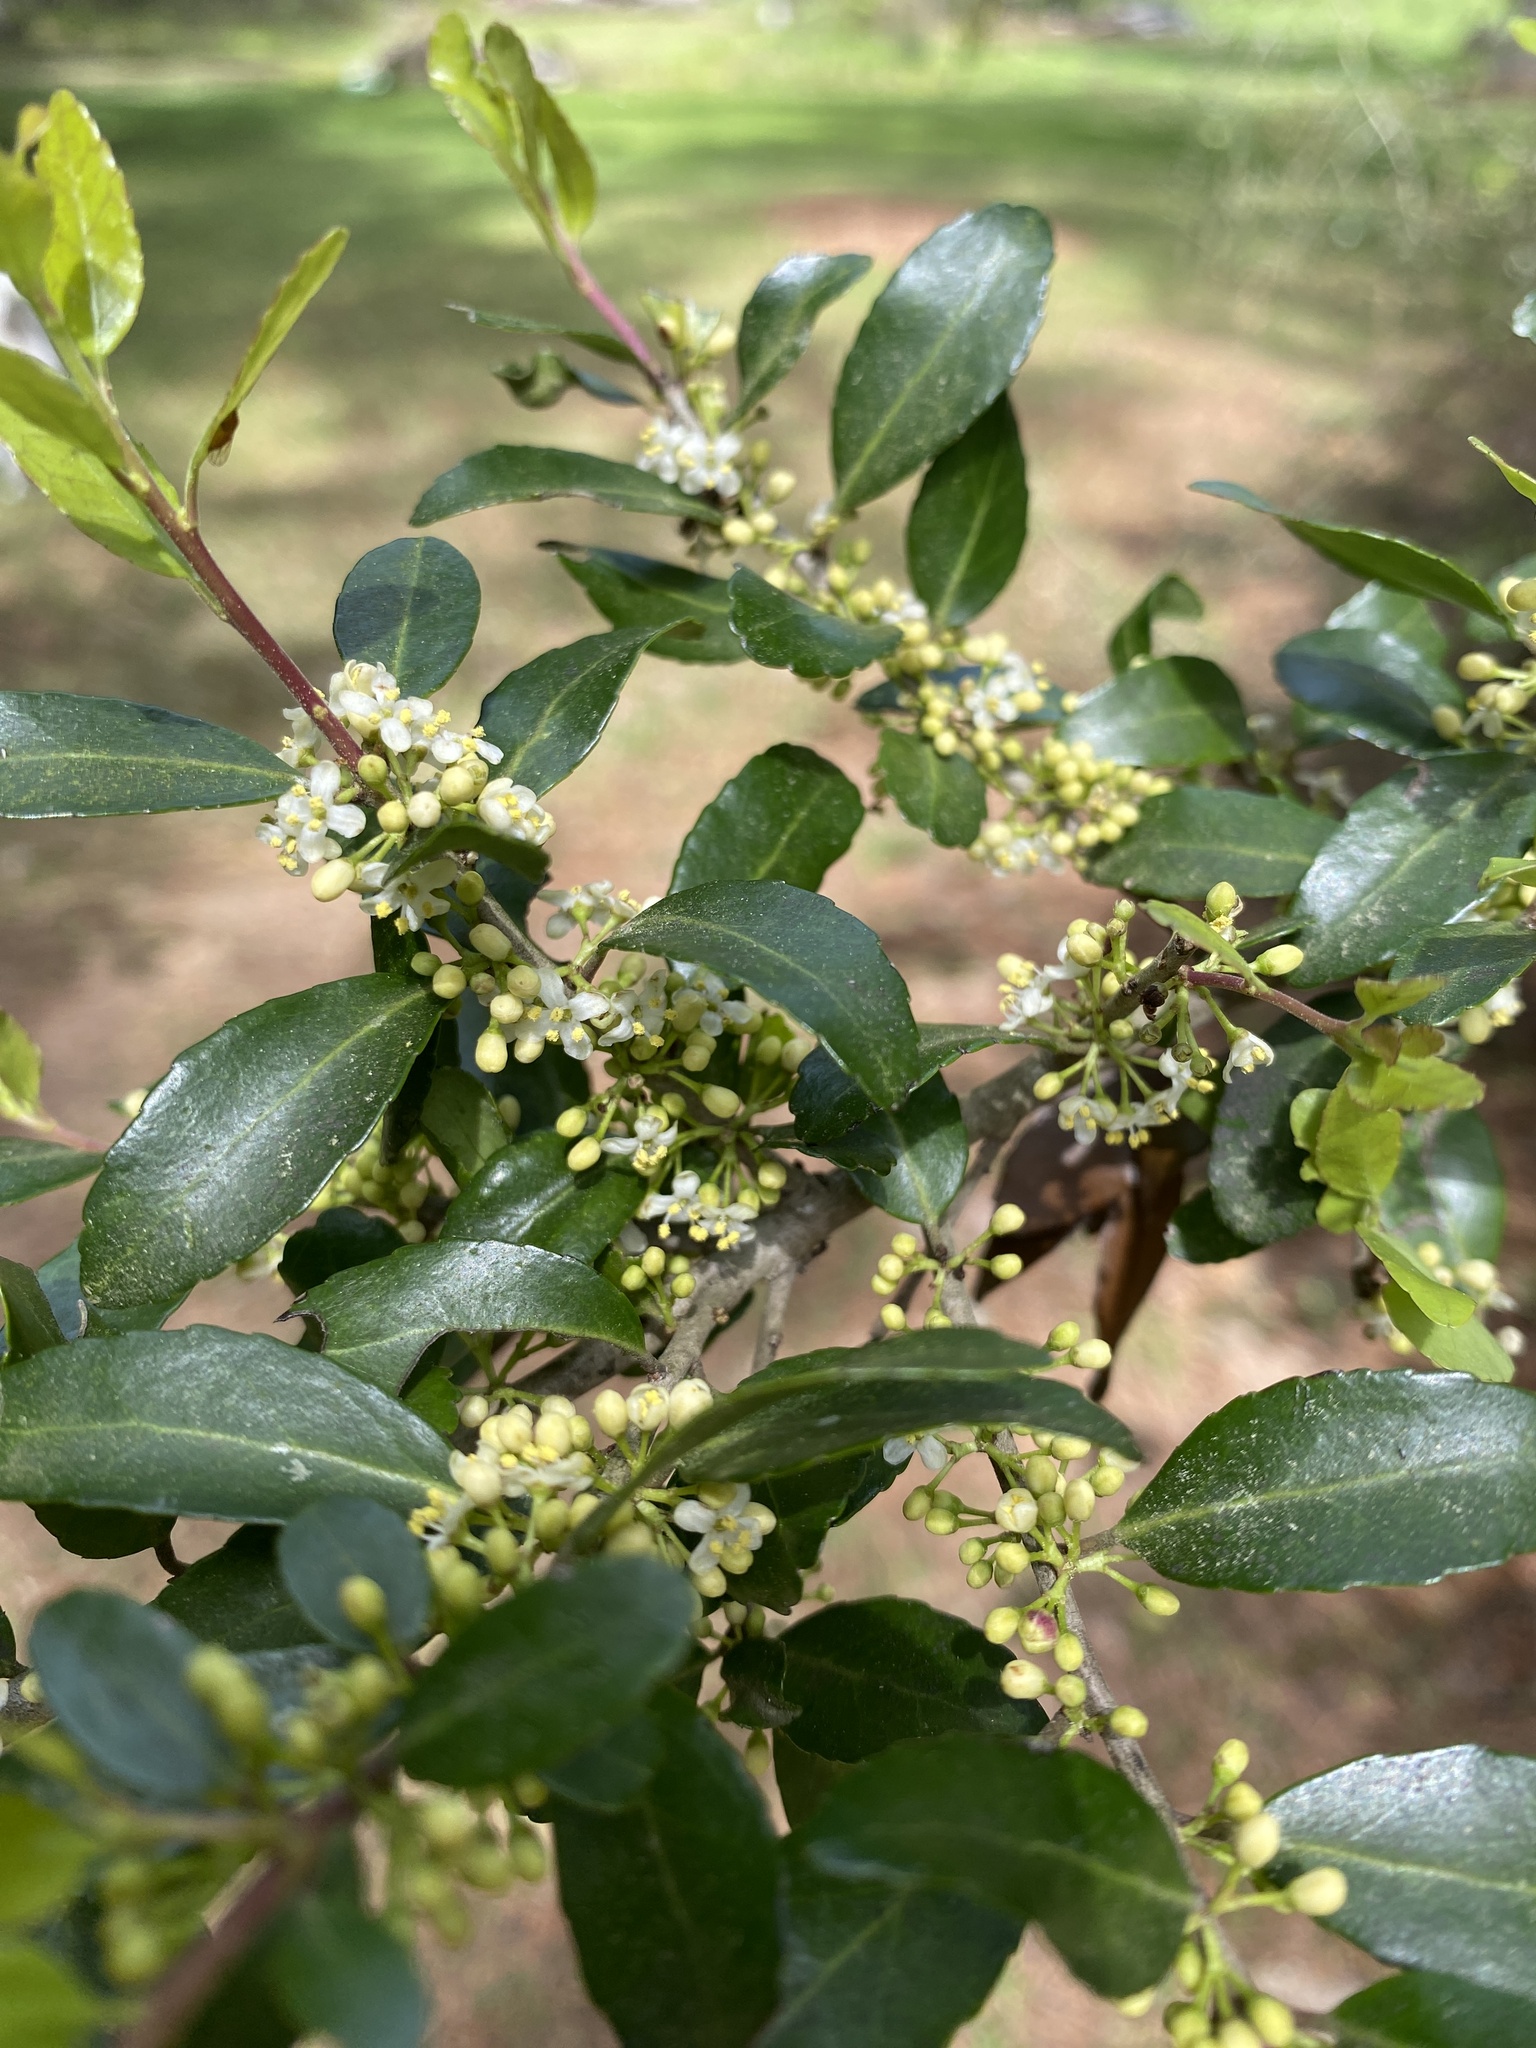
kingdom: Plantae
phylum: Tracheophyta
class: Magnoliopsida
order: Aquifoliales
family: Aquifoliaceae
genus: Ilex
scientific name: Ilex vomitoria
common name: Yaupon holly
